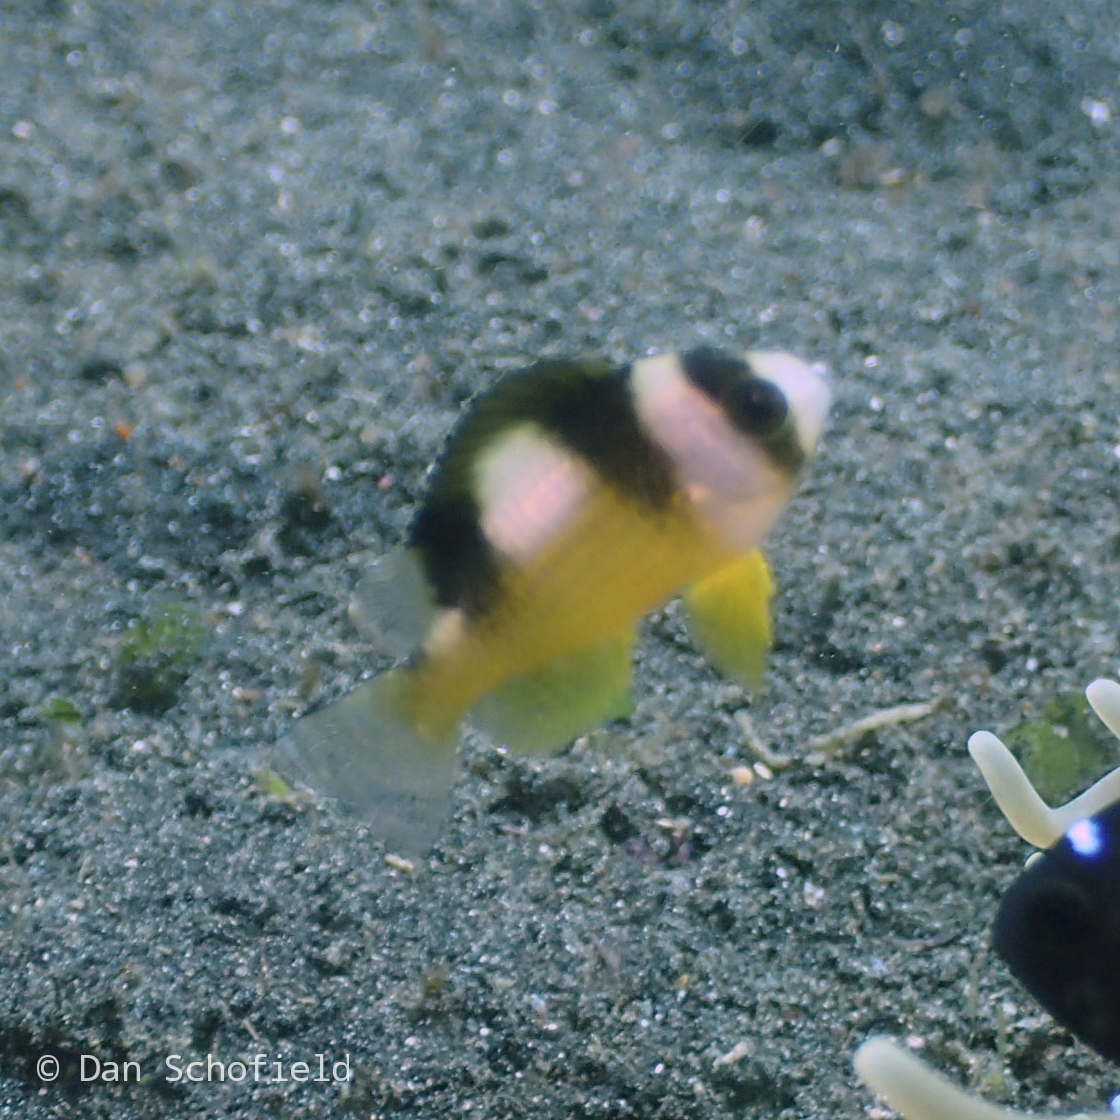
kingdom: Animalia
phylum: Chordata
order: Perciformes
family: Pomacentridae
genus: Amblypomacentrus
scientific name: Amblypomacentrus breviceps
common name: Black-banded demoiselle
